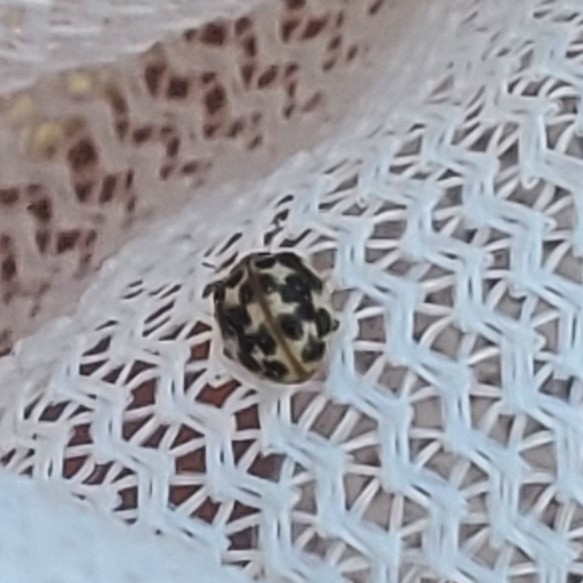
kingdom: Animalia
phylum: Arthropoda
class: Insecta
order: Coleoptera
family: Coccinellidae
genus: Psyllobora
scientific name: Psyllobora vigintimaculata
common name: Ladybird beetle
